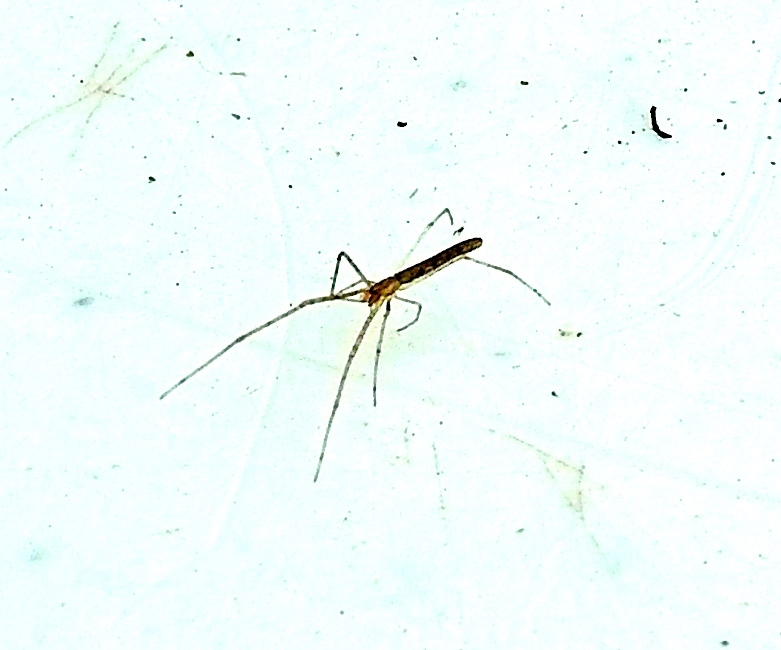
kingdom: Animalia
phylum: Arthropoda
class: Arachnida
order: Araneae
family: Tetragnathidae
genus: Tetragnatha
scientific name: Tetragnatha
